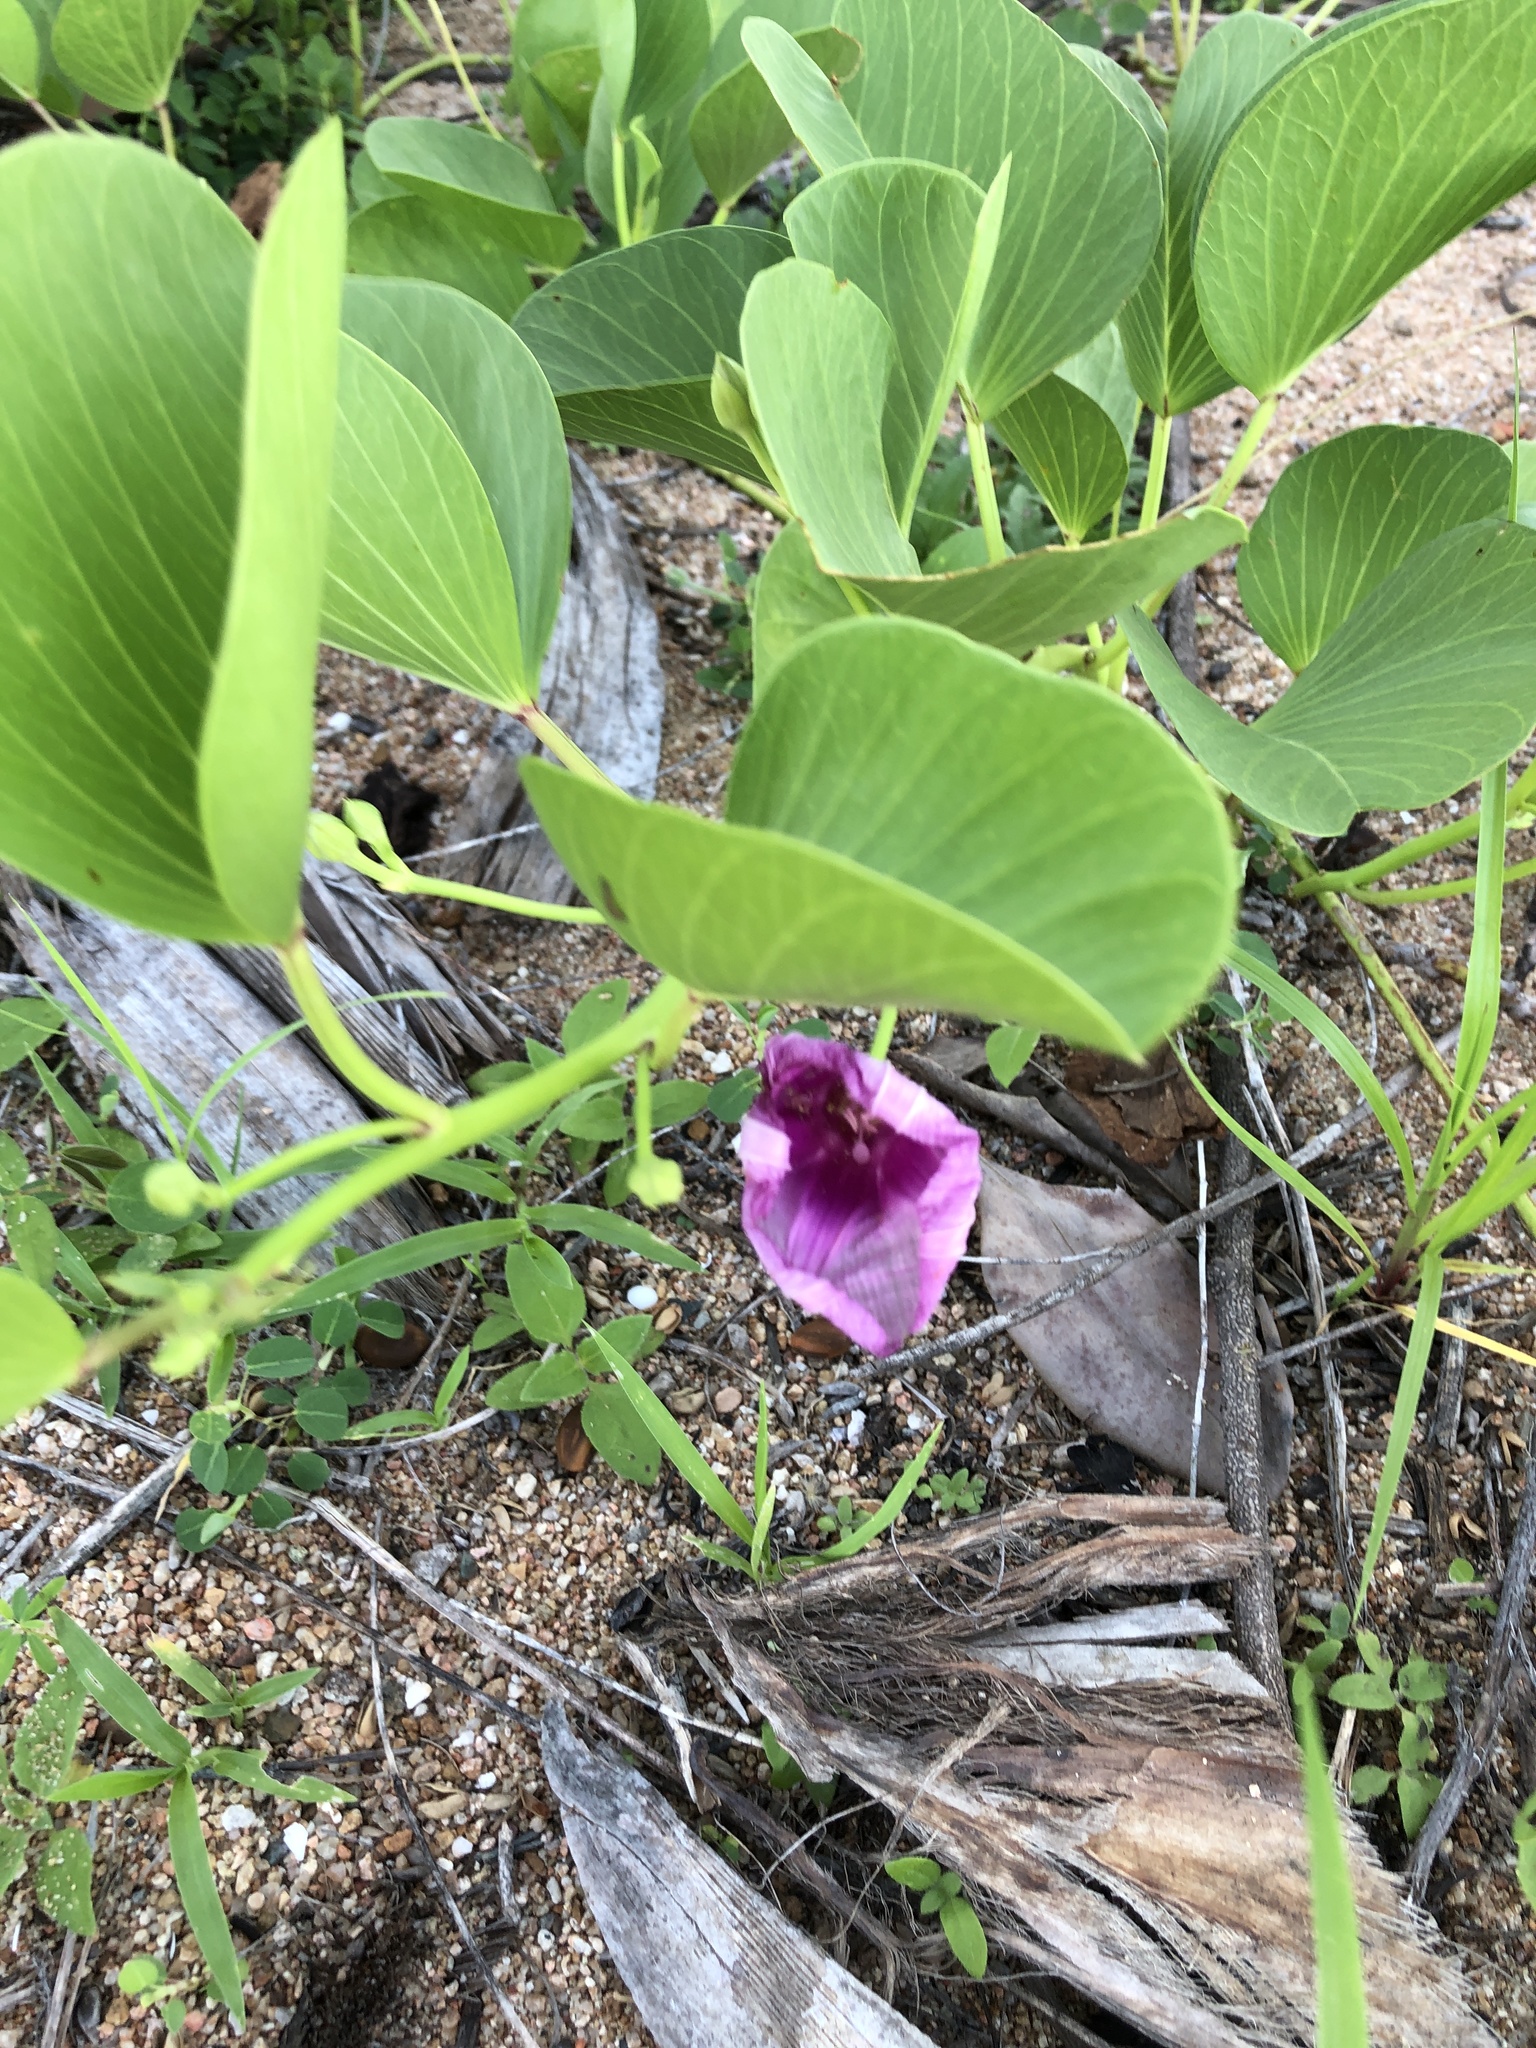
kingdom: Plantae
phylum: Tracheophyta
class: Magnoliopsida
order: Solanales
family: Convolvulaceae
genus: Ipomoea
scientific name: Ipomoea pes-caprae
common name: Beach morning glory
